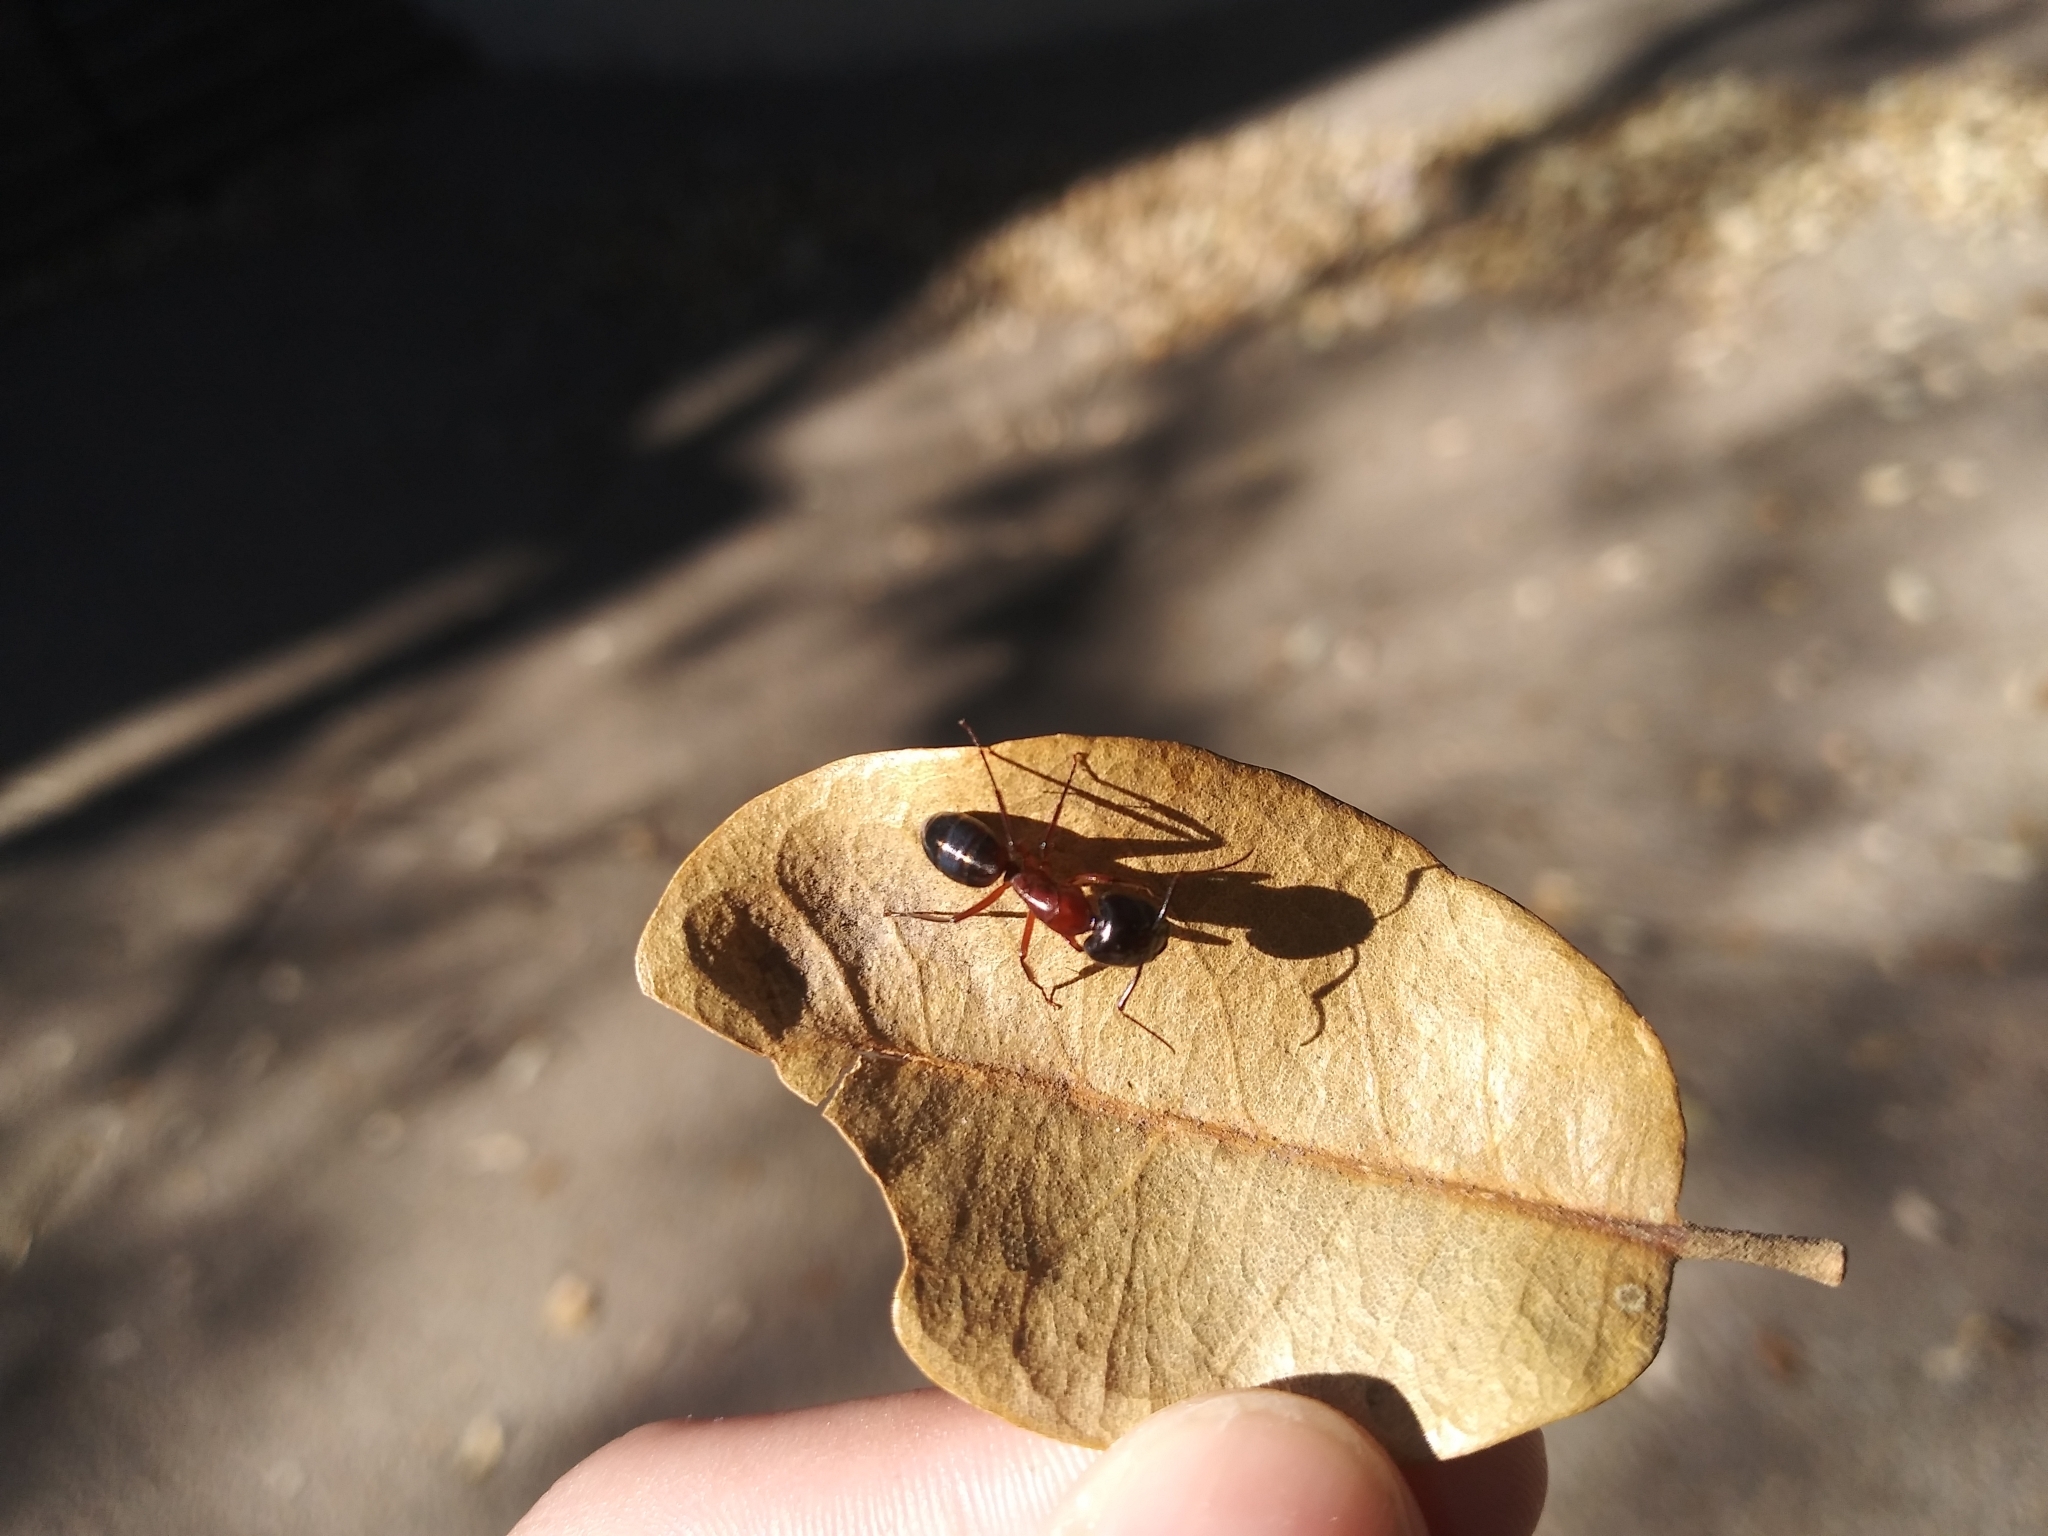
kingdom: Animalia
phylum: Arthropoda
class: Insecta
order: Hymenoptera
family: Formicidae
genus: Camponotus
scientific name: Camponotus texanus
